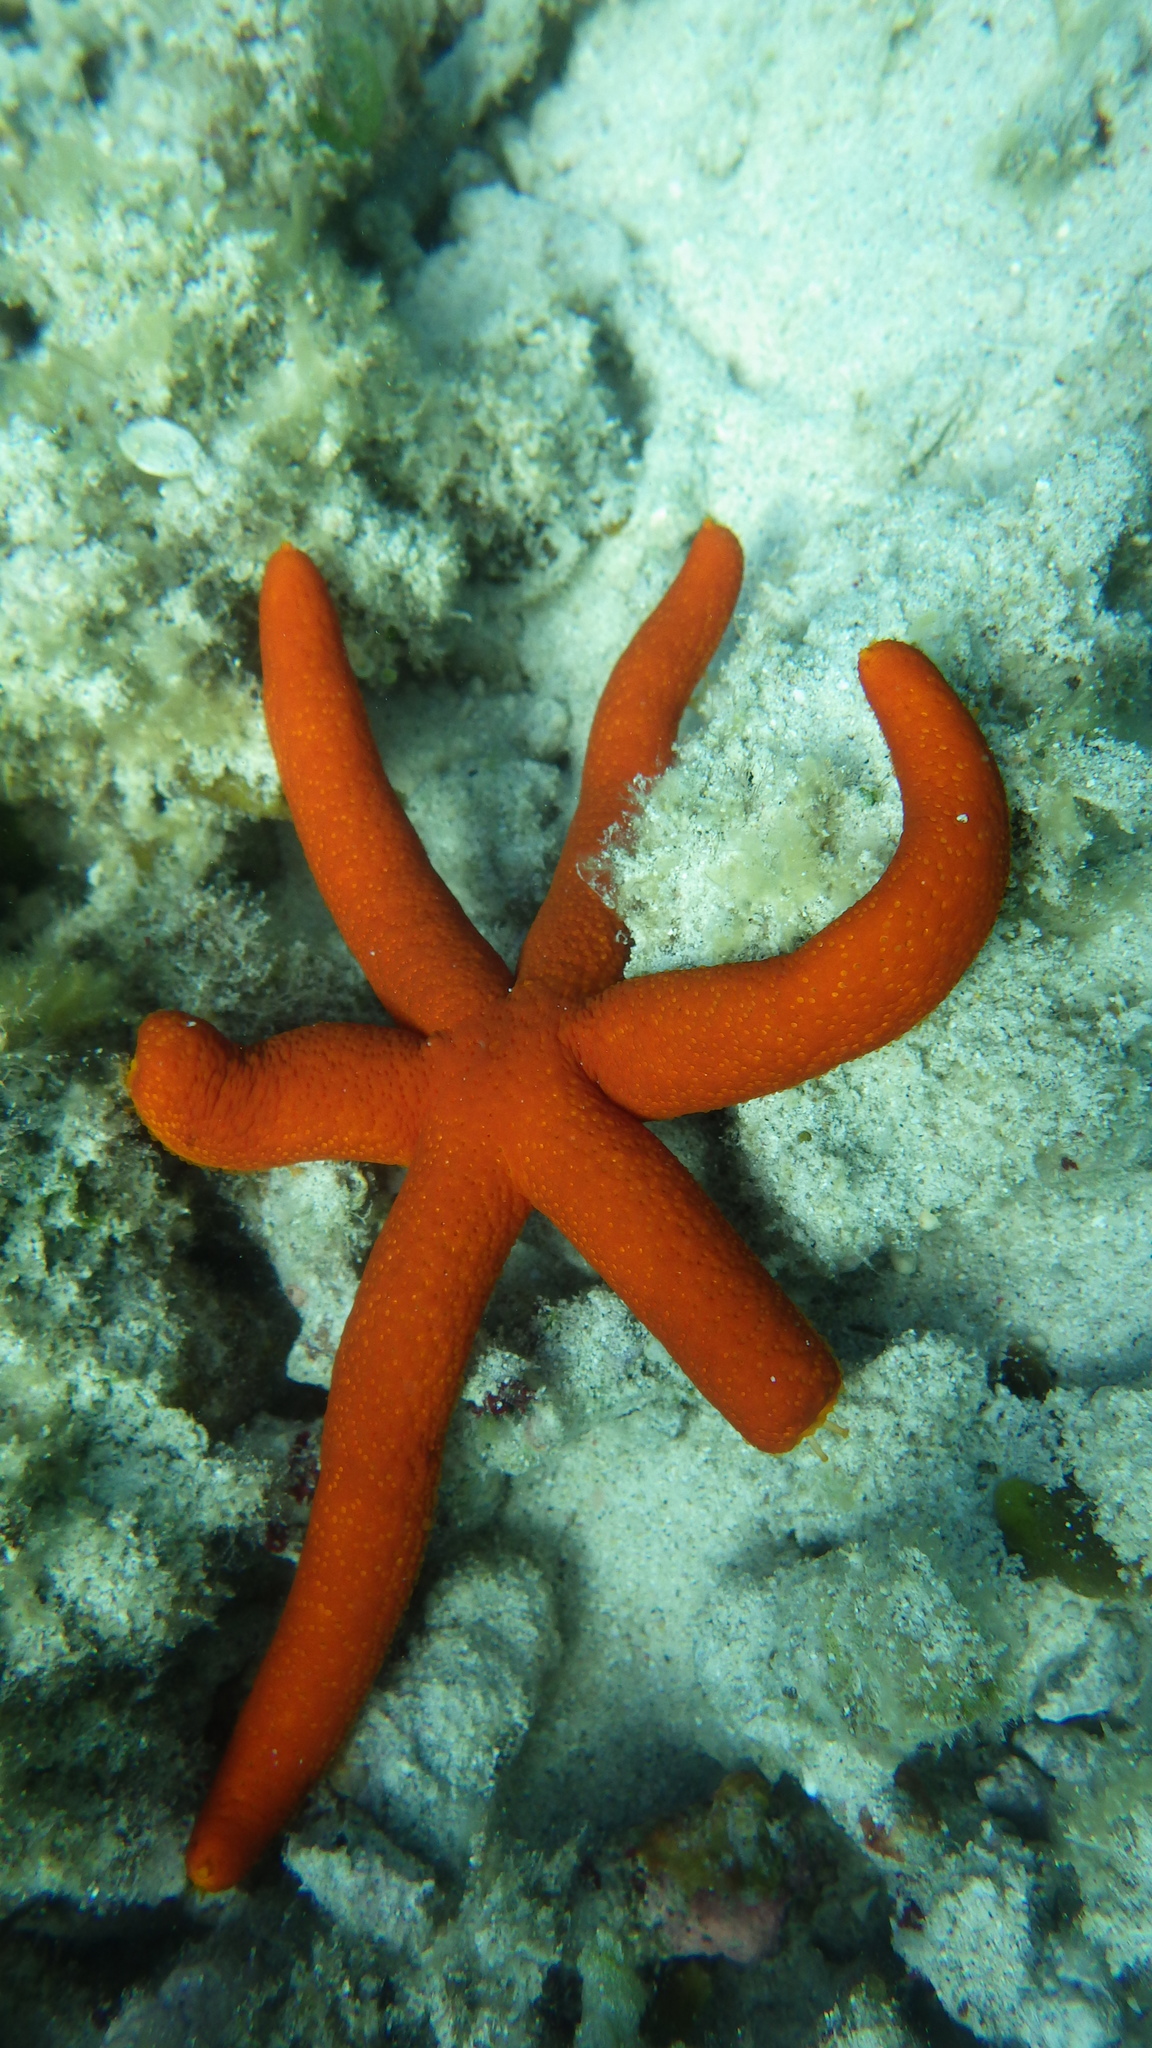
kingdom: Animalia
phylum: Echinodermata
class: Asteroidea
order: Spinulosida
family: Echinasteridae
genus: Echinaster
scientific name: Echinaster luzonicus
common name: Luzon seastar
